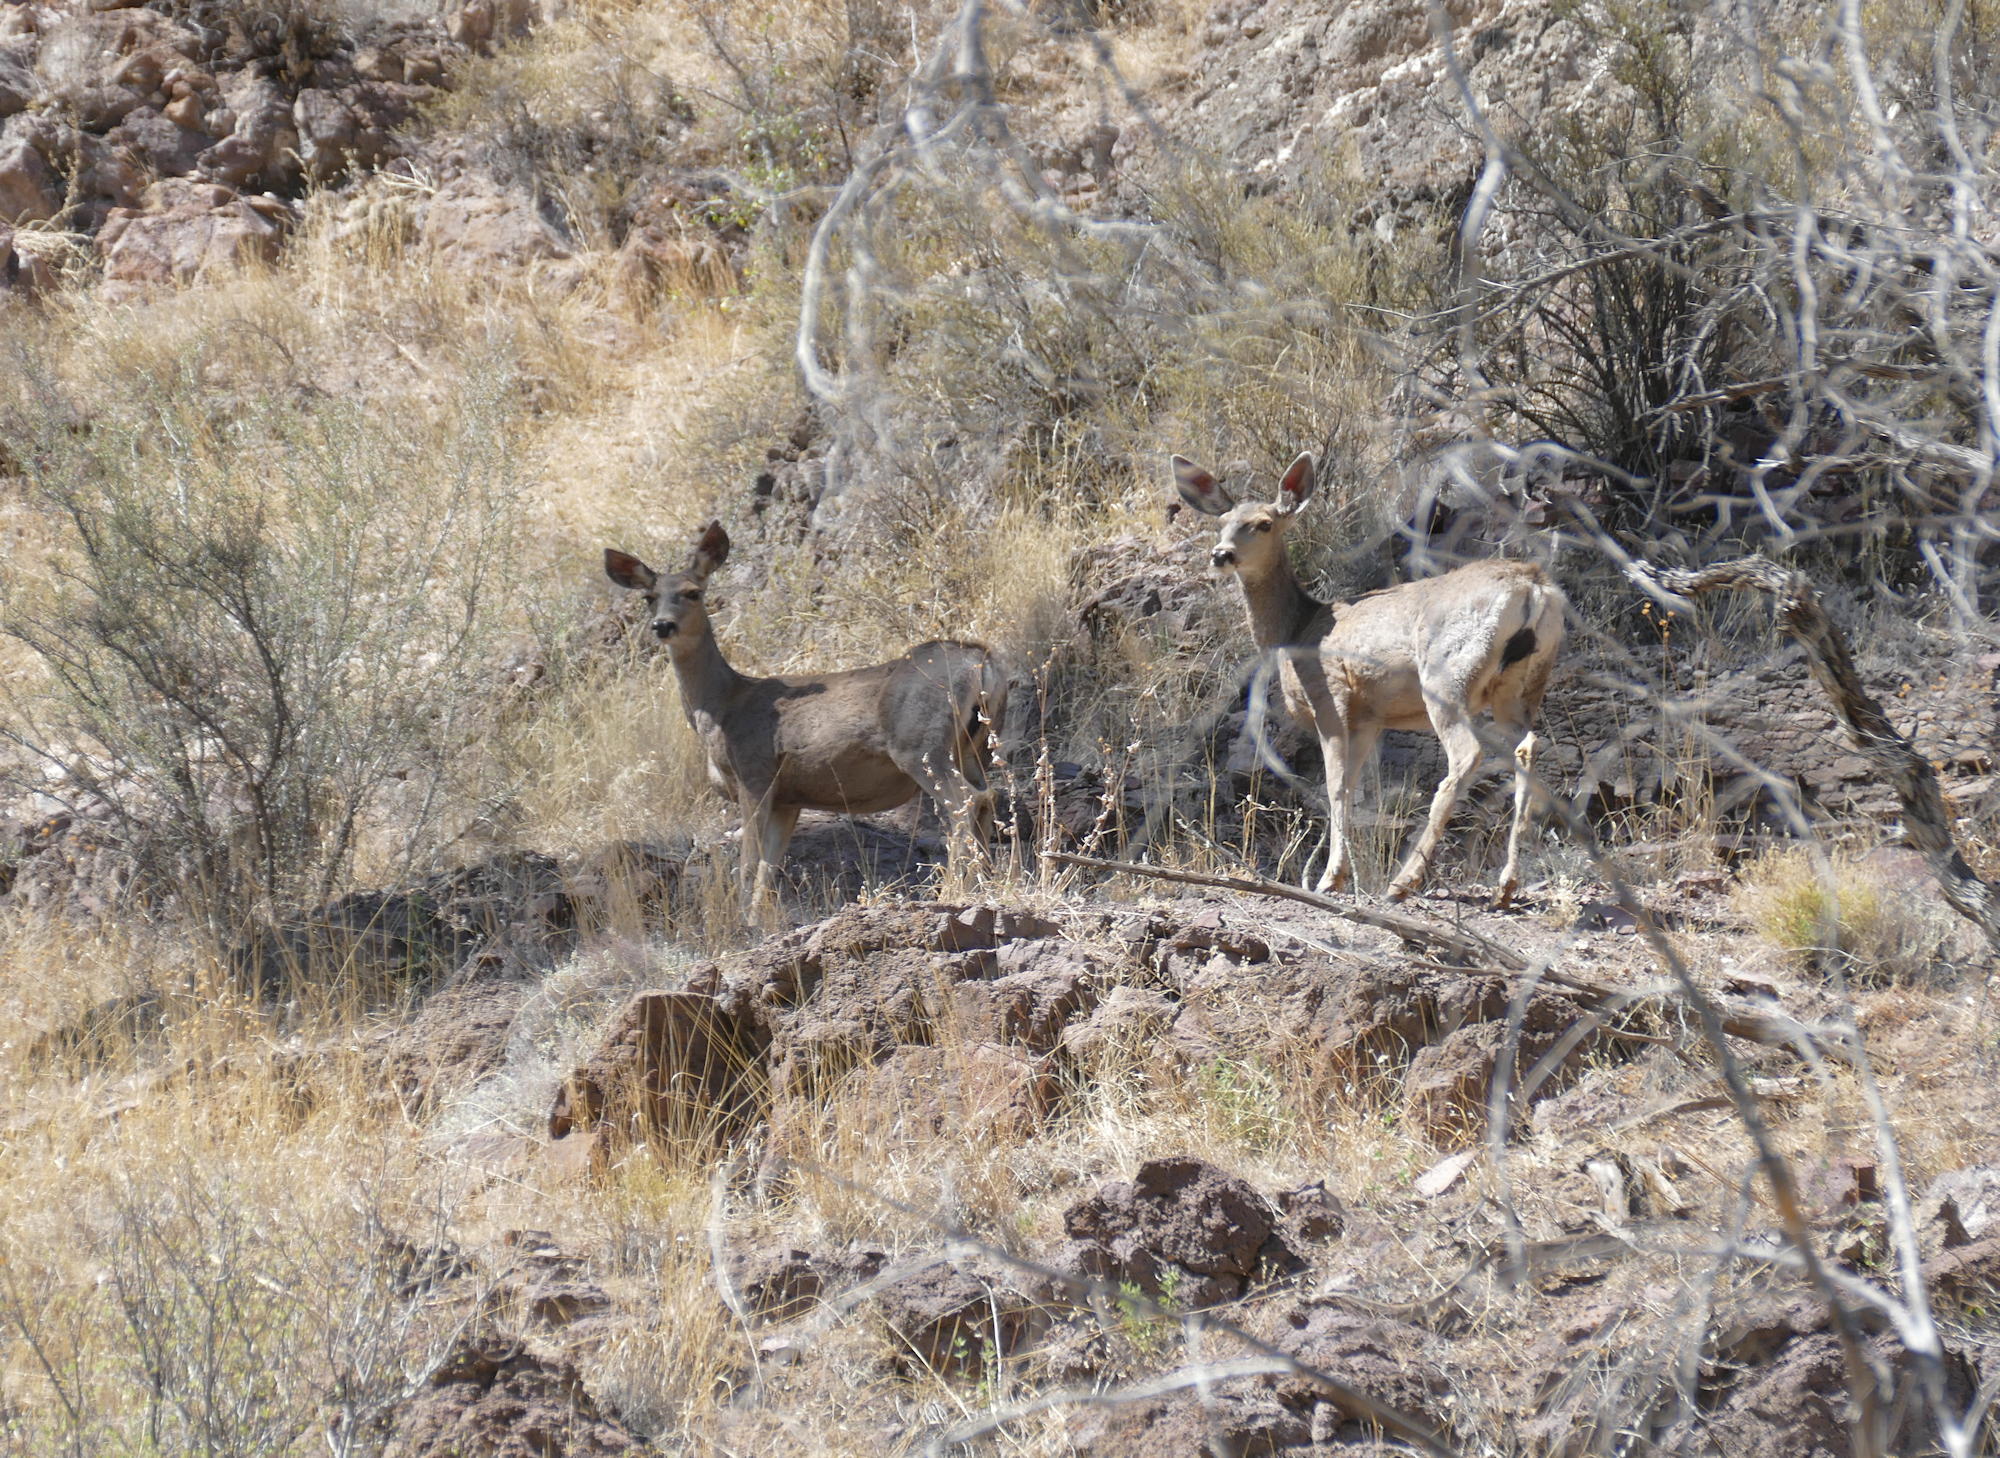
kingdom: Animalia
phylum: Chordata
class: Mammalia
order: Artiodactyla
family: Cervidae
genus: Odocoileus
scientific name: Odocoileus hemionus
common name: Mule deer
